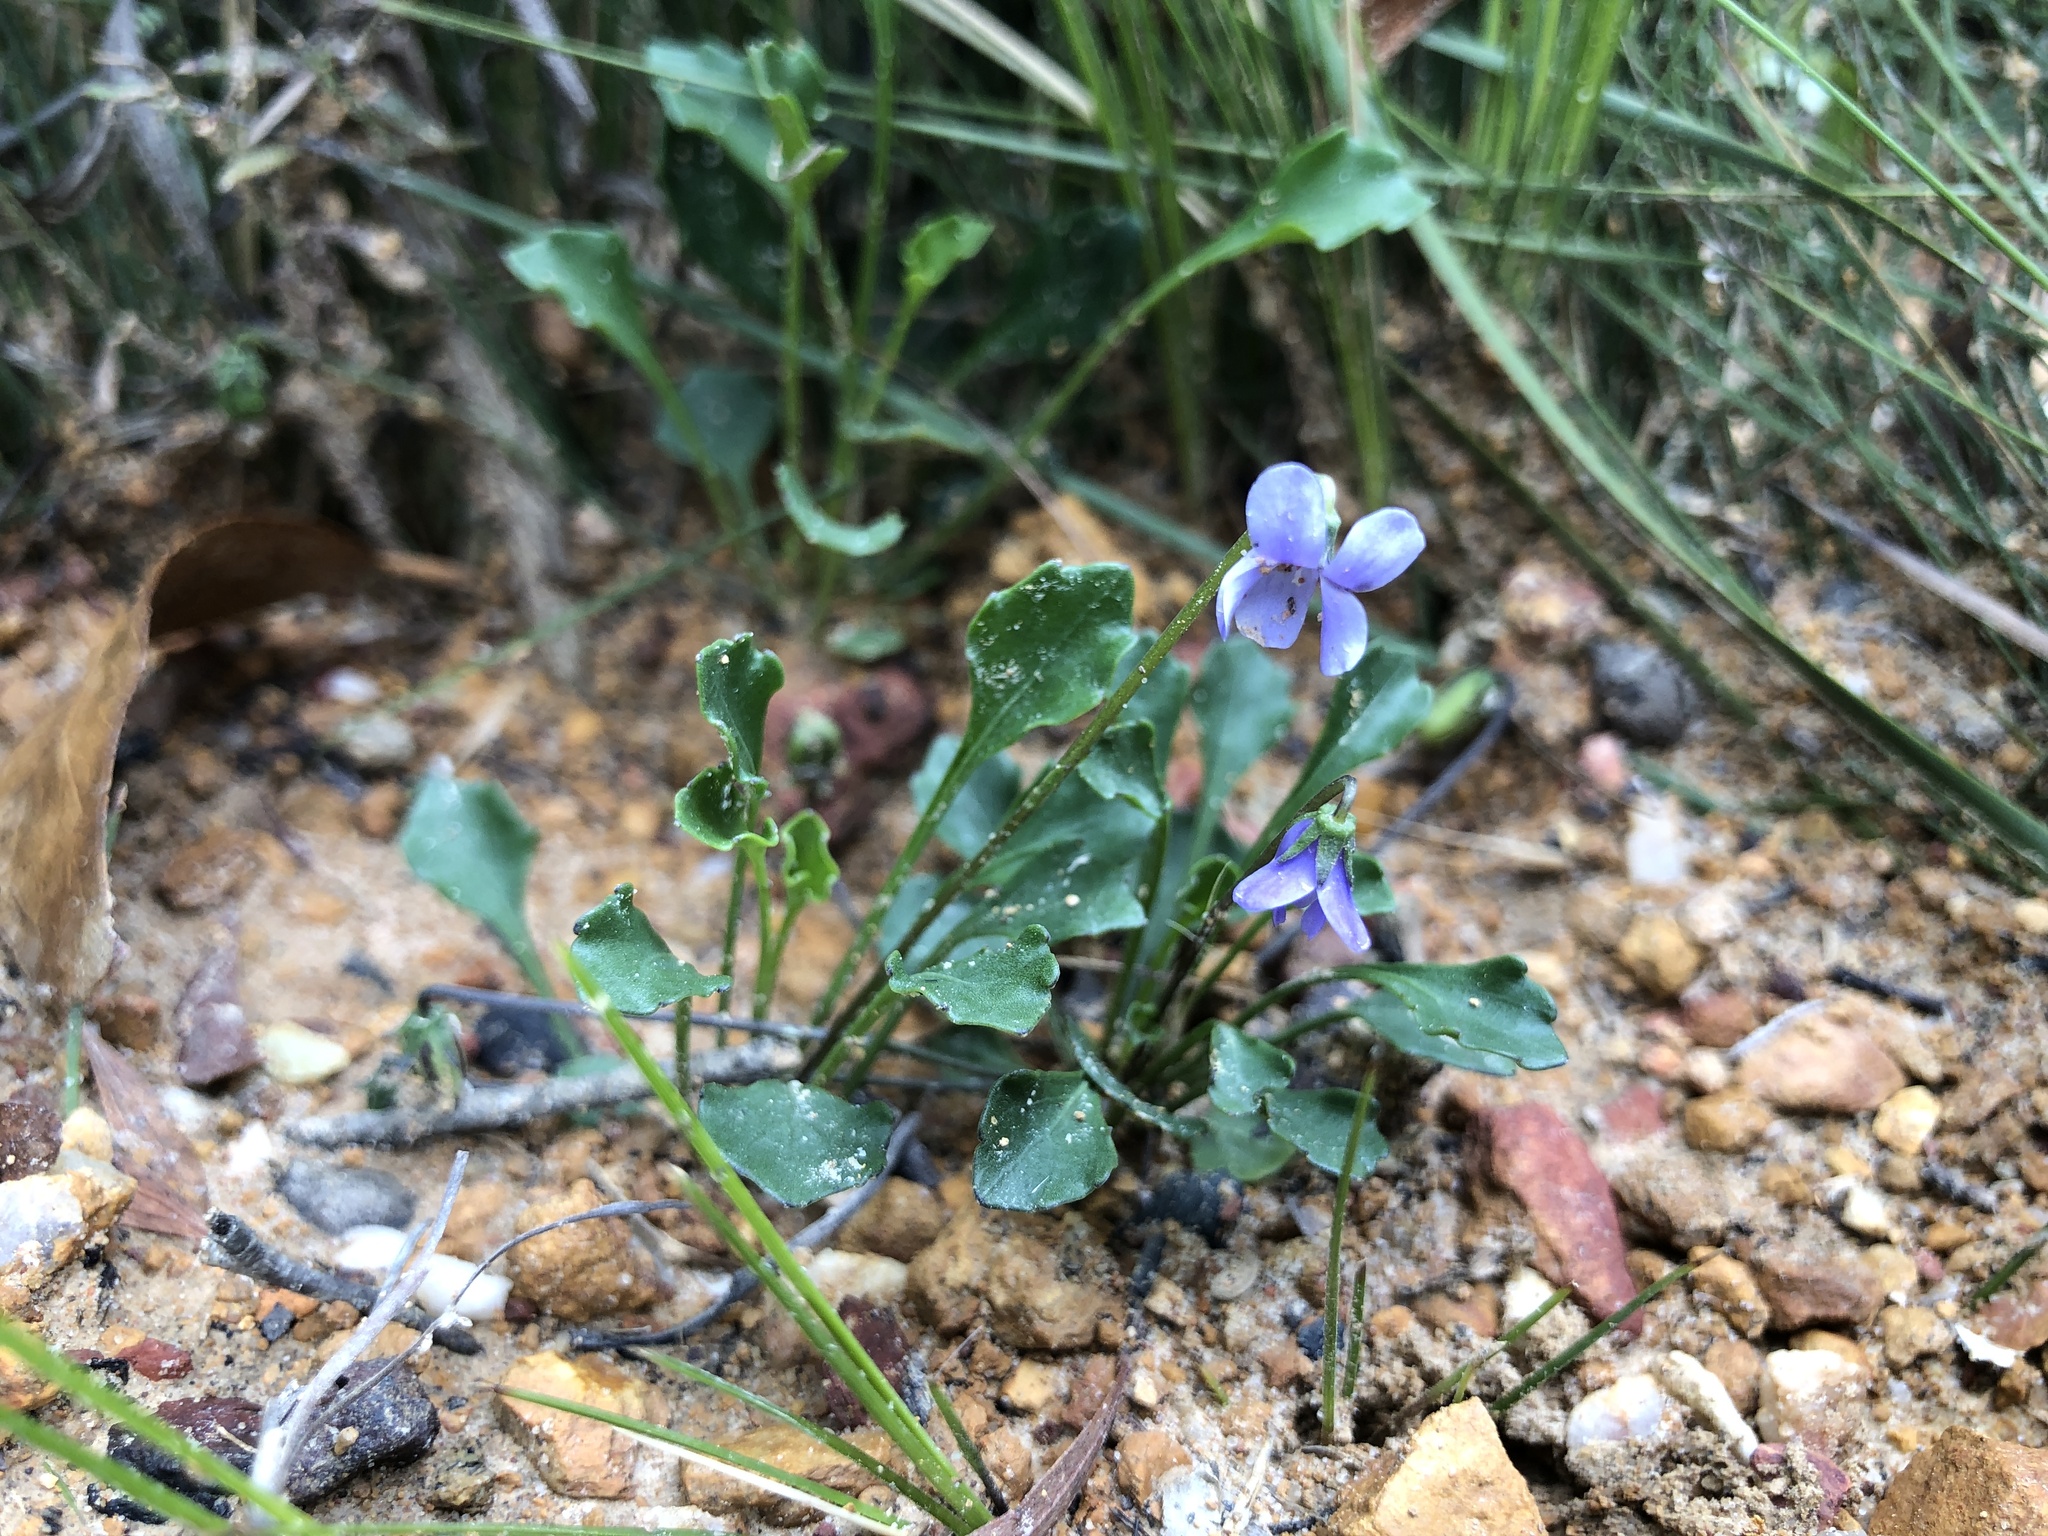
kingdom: Plantae
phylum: Tracheophyta
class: Magnoliopsida
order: Malpighiales
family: Violaceae
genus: Viola
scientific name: Viola sieberiana
